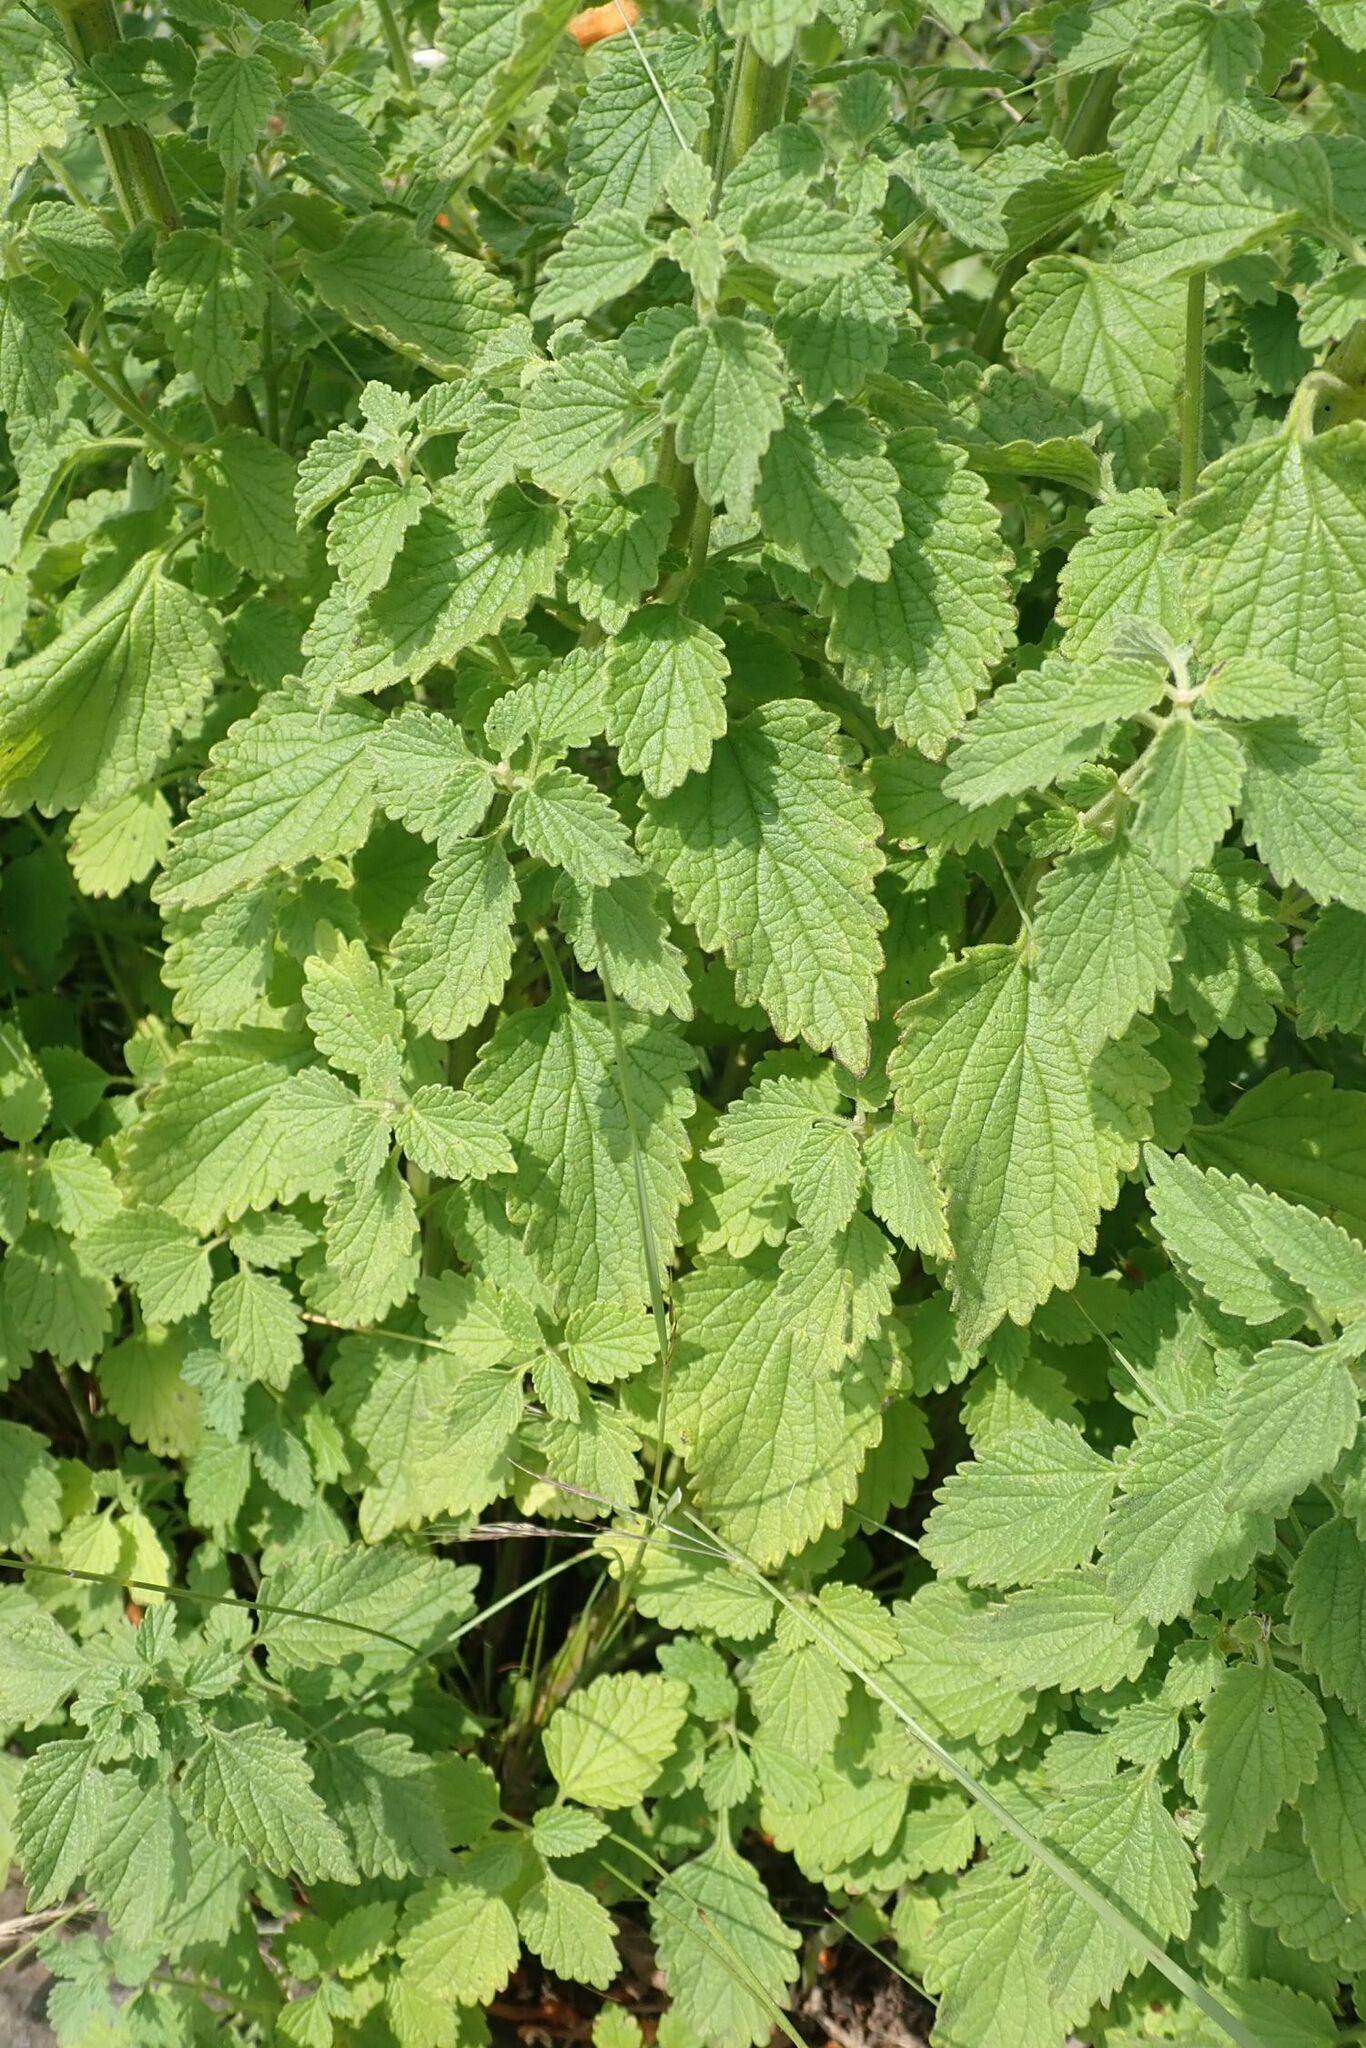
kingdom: Plantae
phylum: Tracheophyta
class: Magnoliopsida
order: Lamiales
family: Lamiaceae
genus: Leonotis
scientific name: Leonotis ocymifolia
